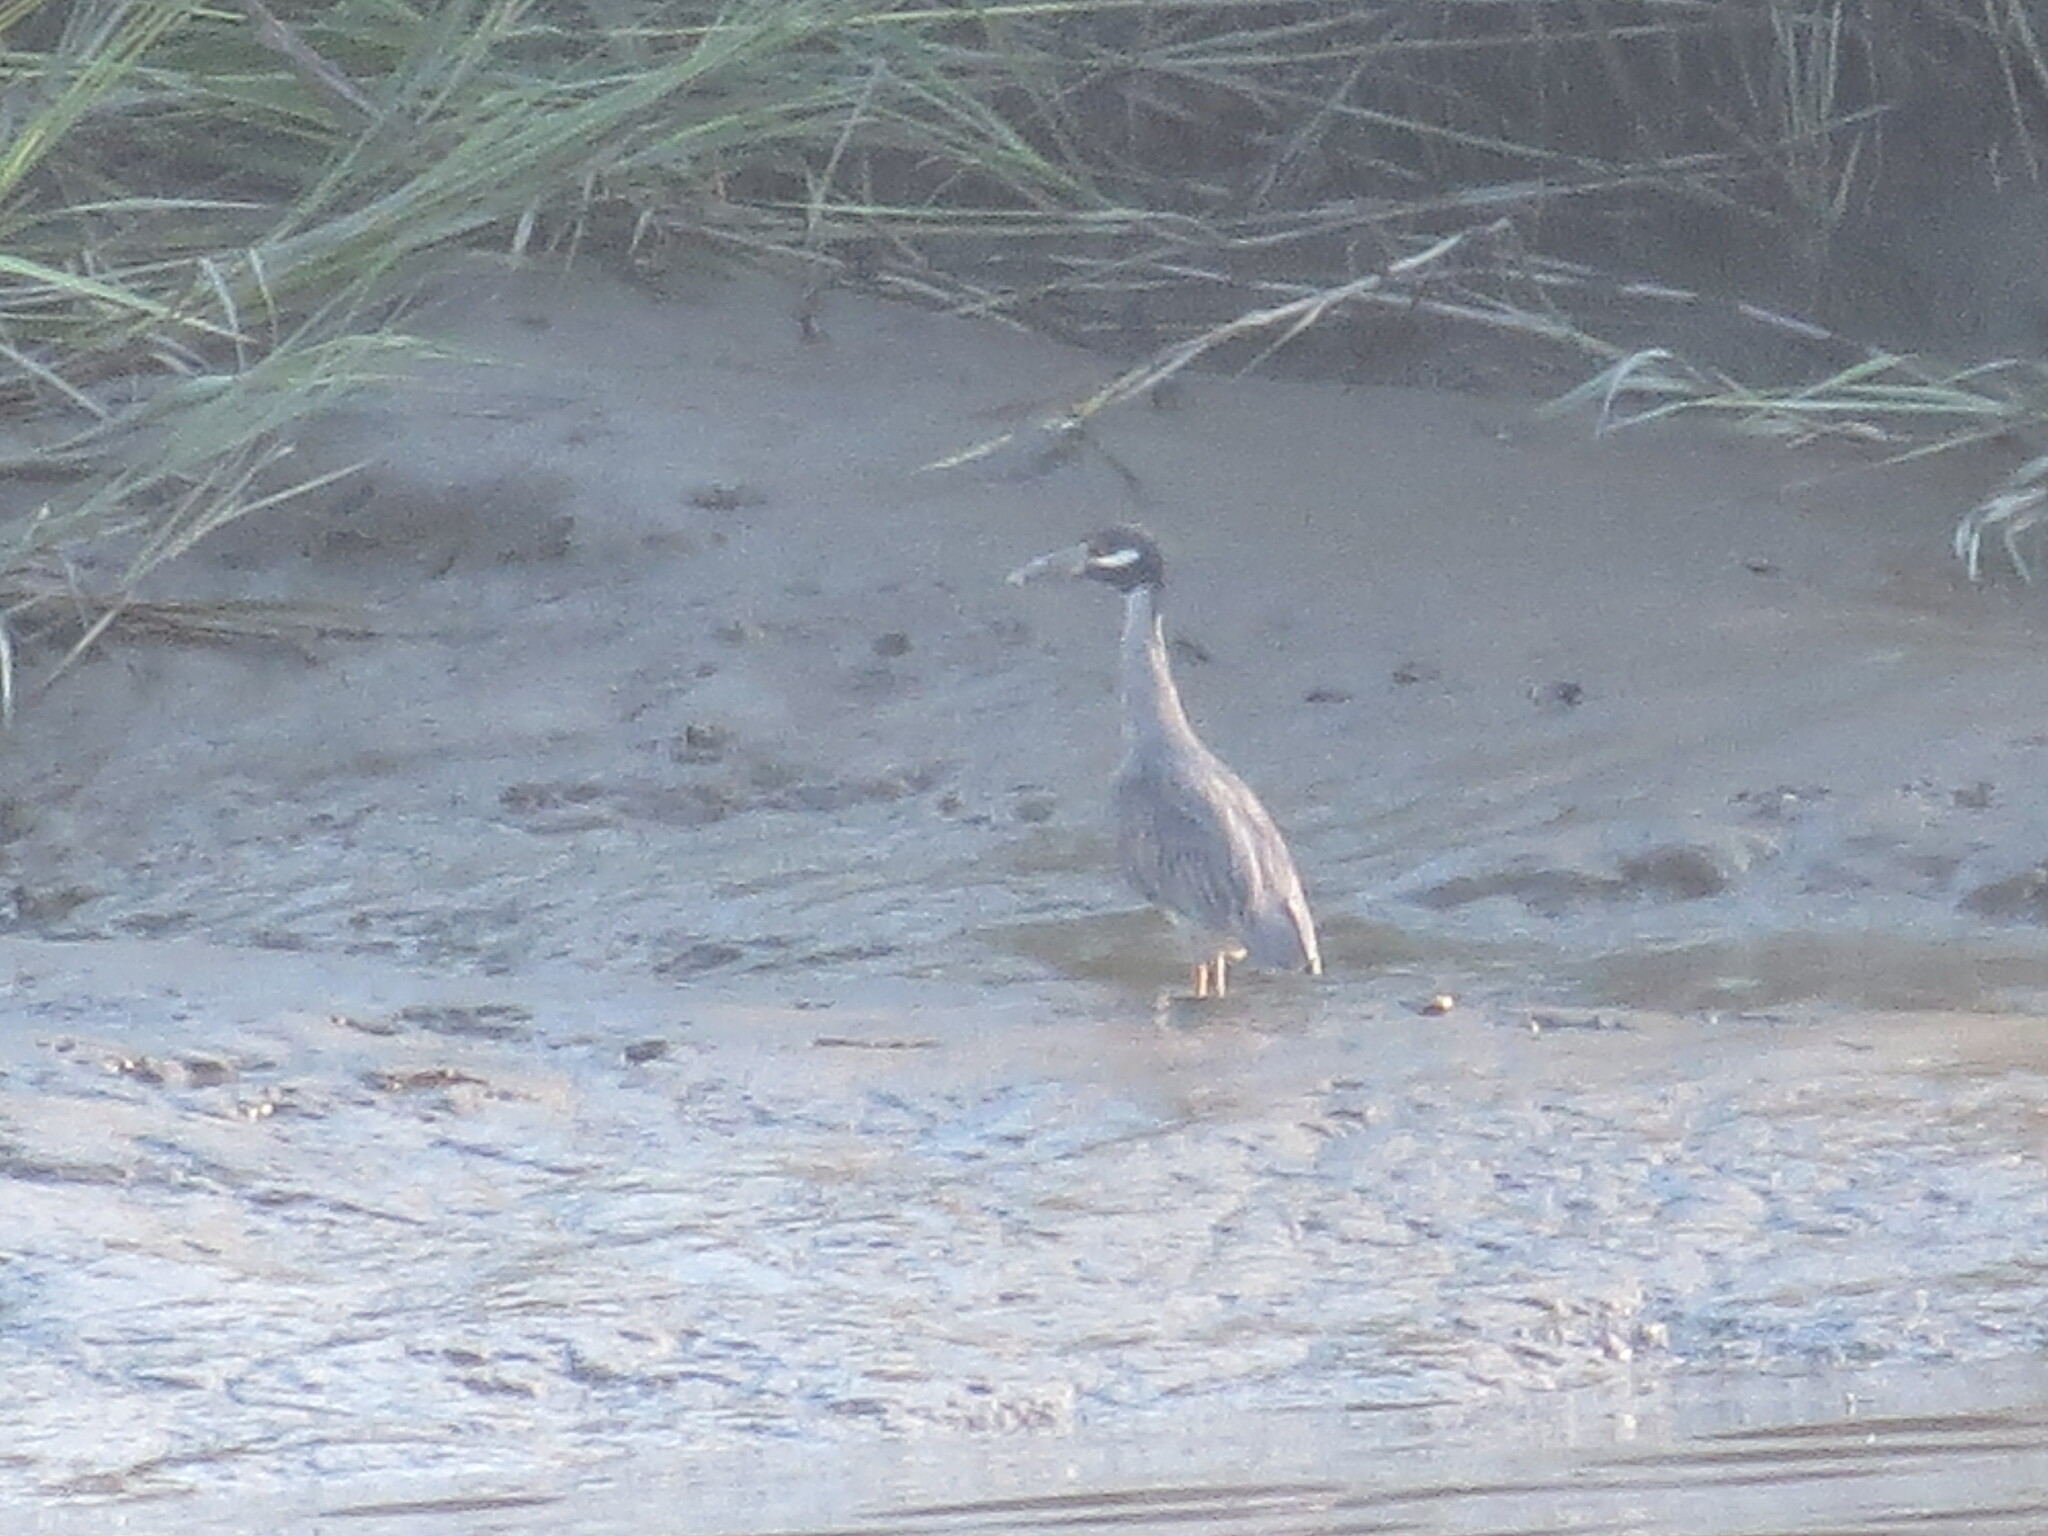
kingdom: Animalia
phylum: Chordata
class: Aves
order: Pelecaniformes
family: Ardeidae
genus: Nyctanassa
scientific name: Nyctanassa violacea
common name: Yellow-crowned night heron
